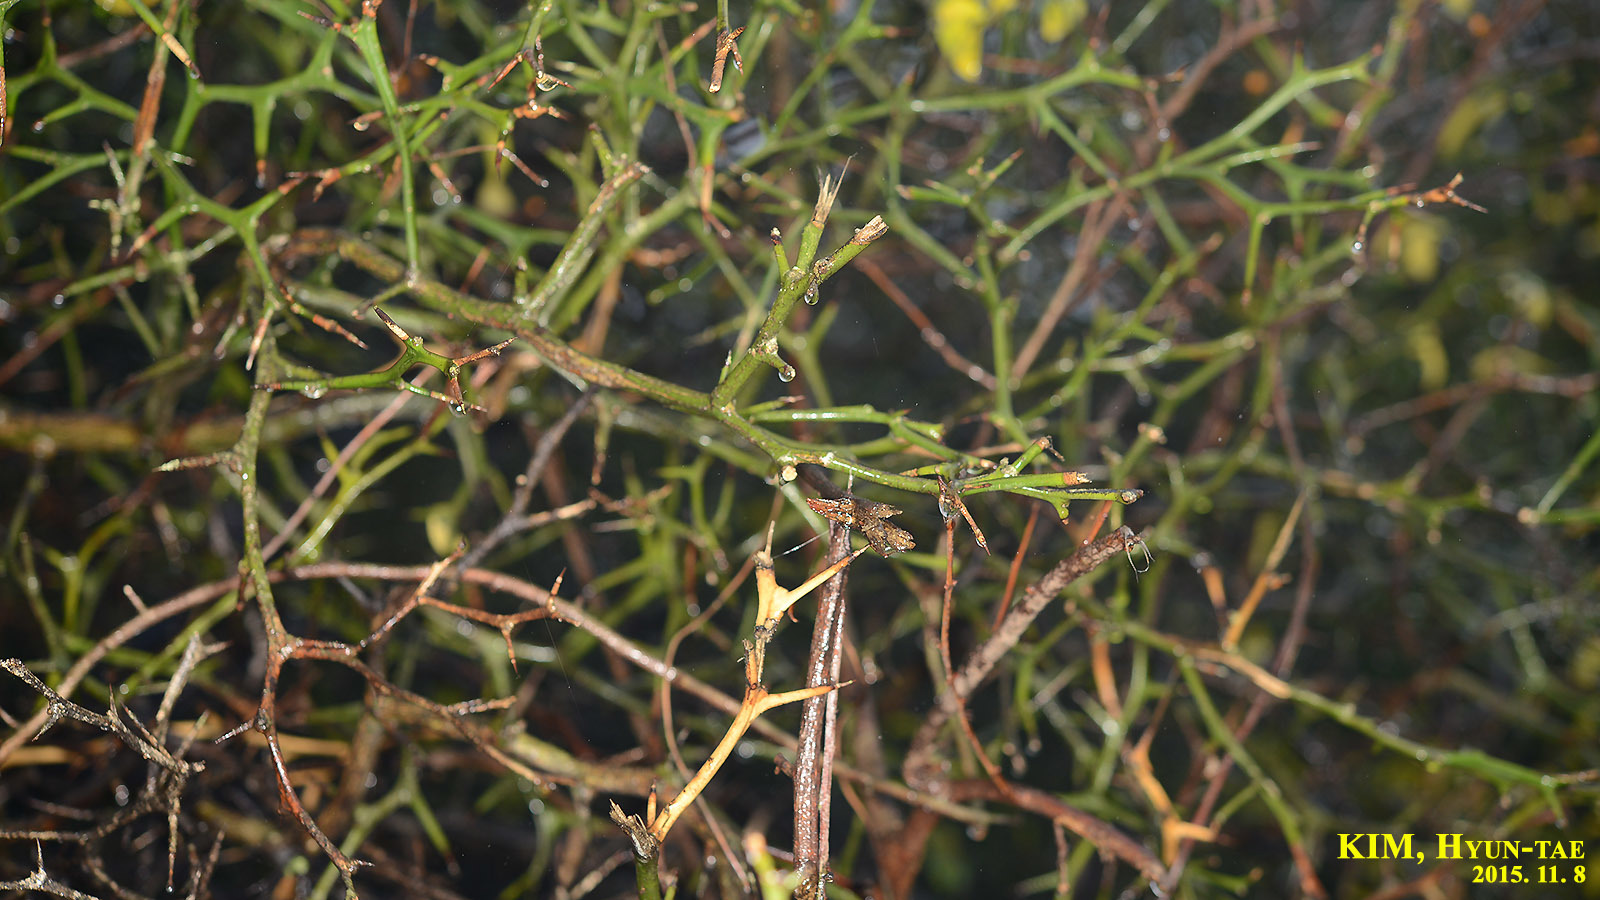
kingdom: Plantae
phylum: Tracheophyta
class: Magnoliopsida
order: Sapindales
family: Rutaceae
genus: Citrus
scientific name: Citrus trifoliata
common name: Japanese bitter-orange
